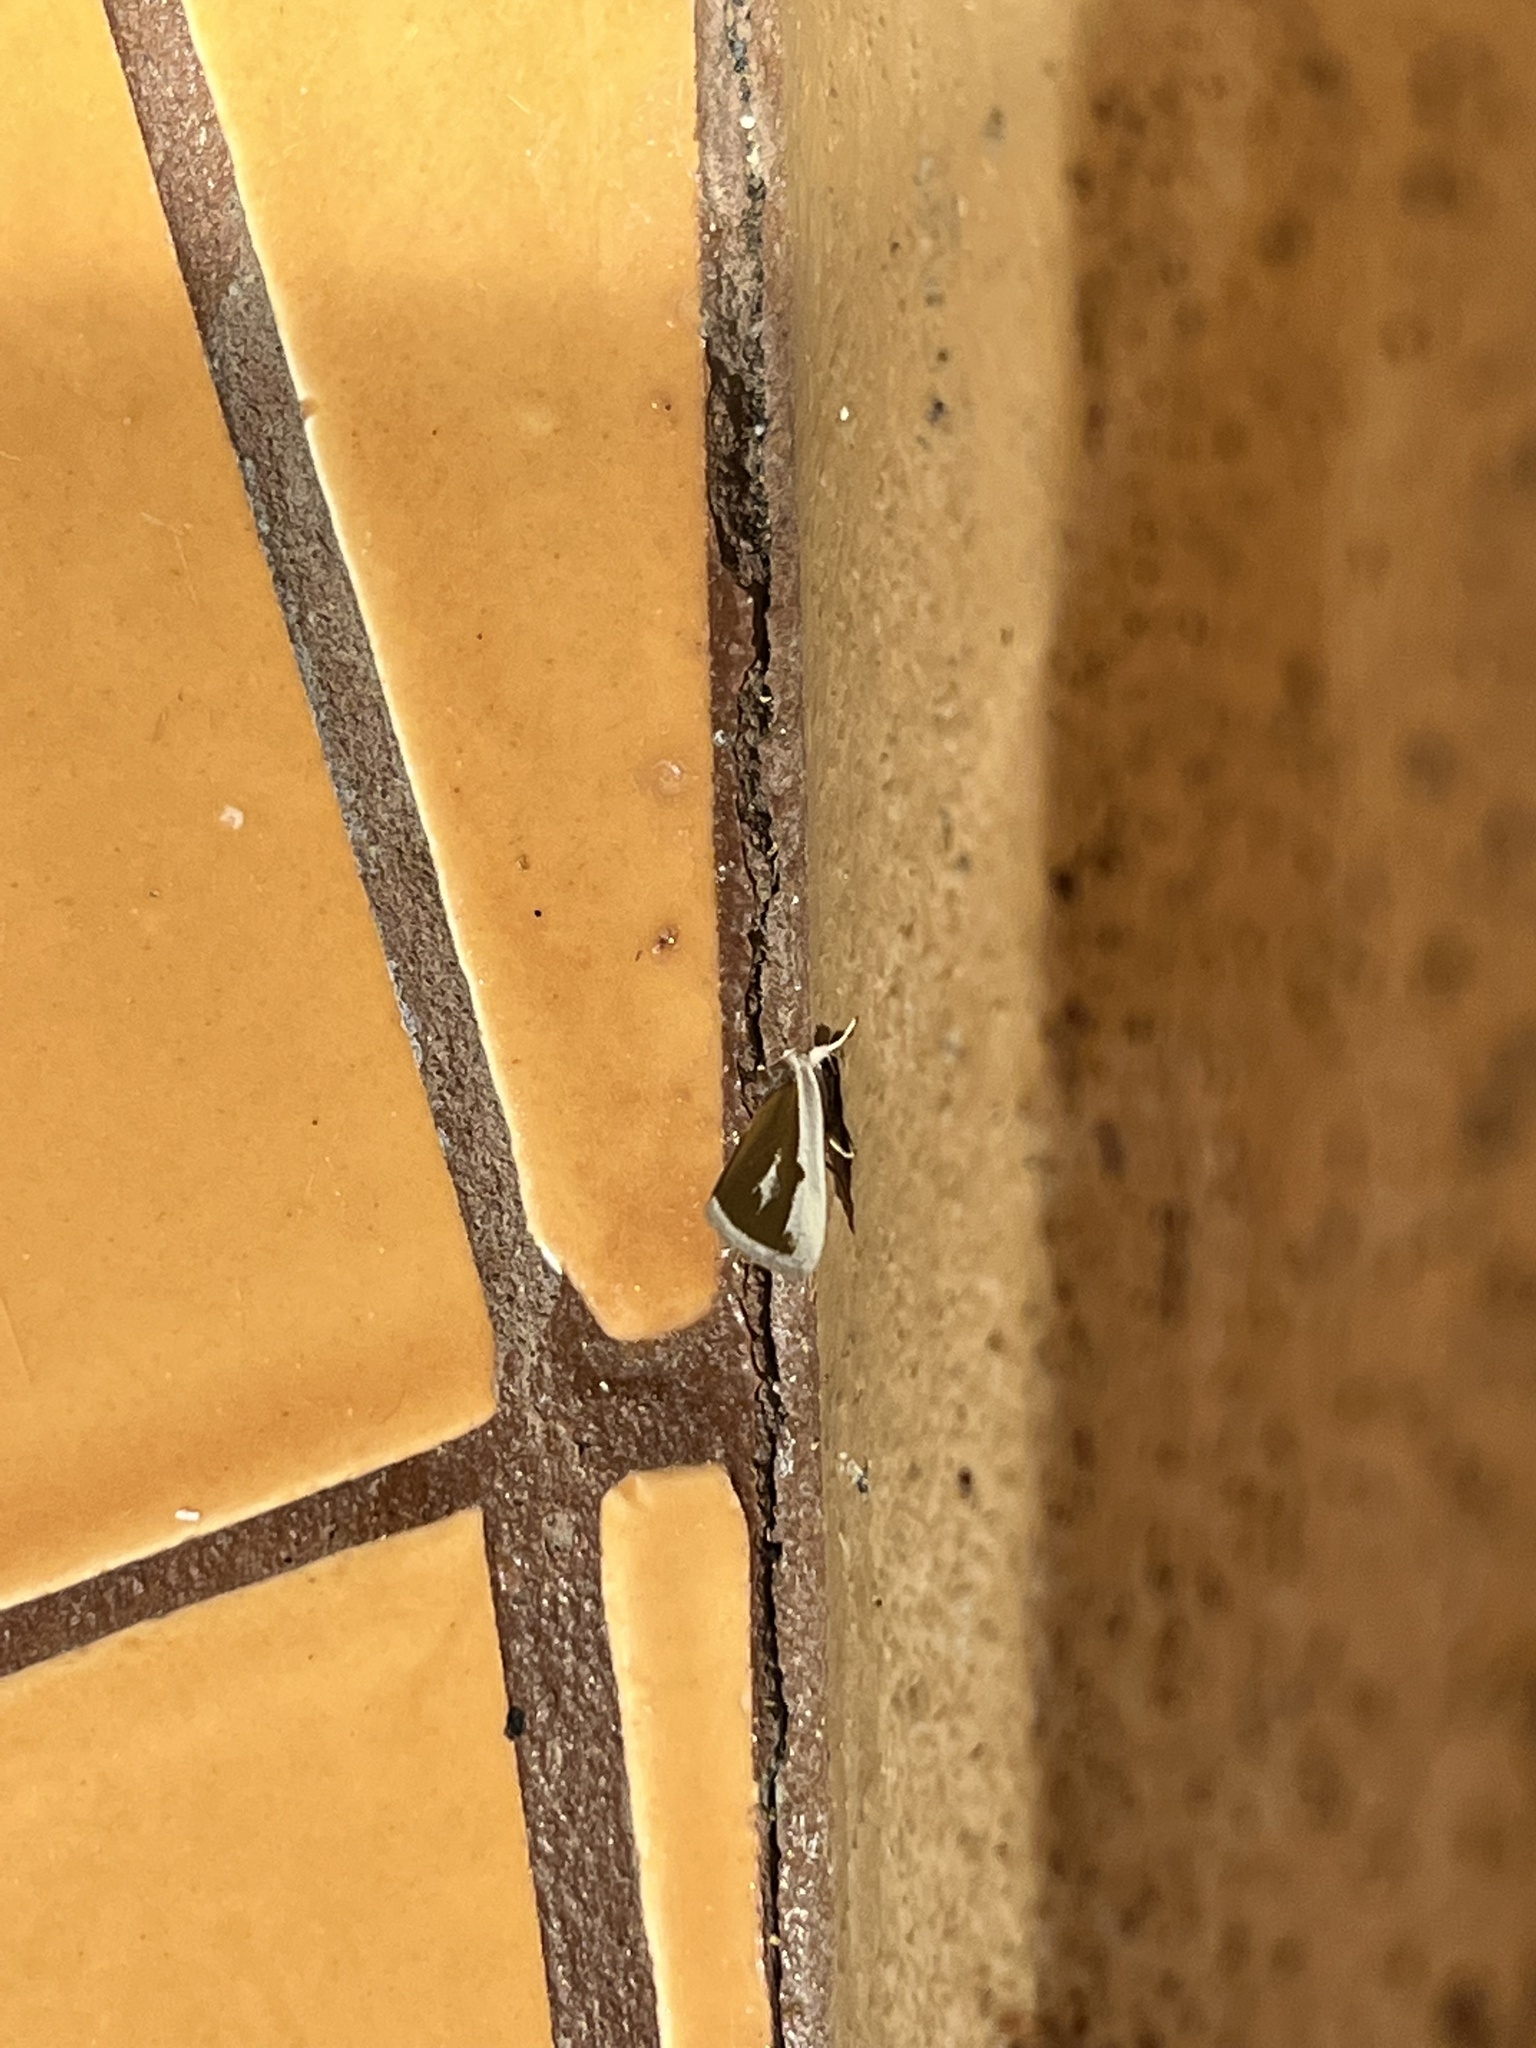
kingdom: Animalia
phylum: Arthropoda
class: Insecta
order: Lepidoptera
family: Noctuidae
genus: Neumoegenia
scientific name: Neumoegenia poetica
